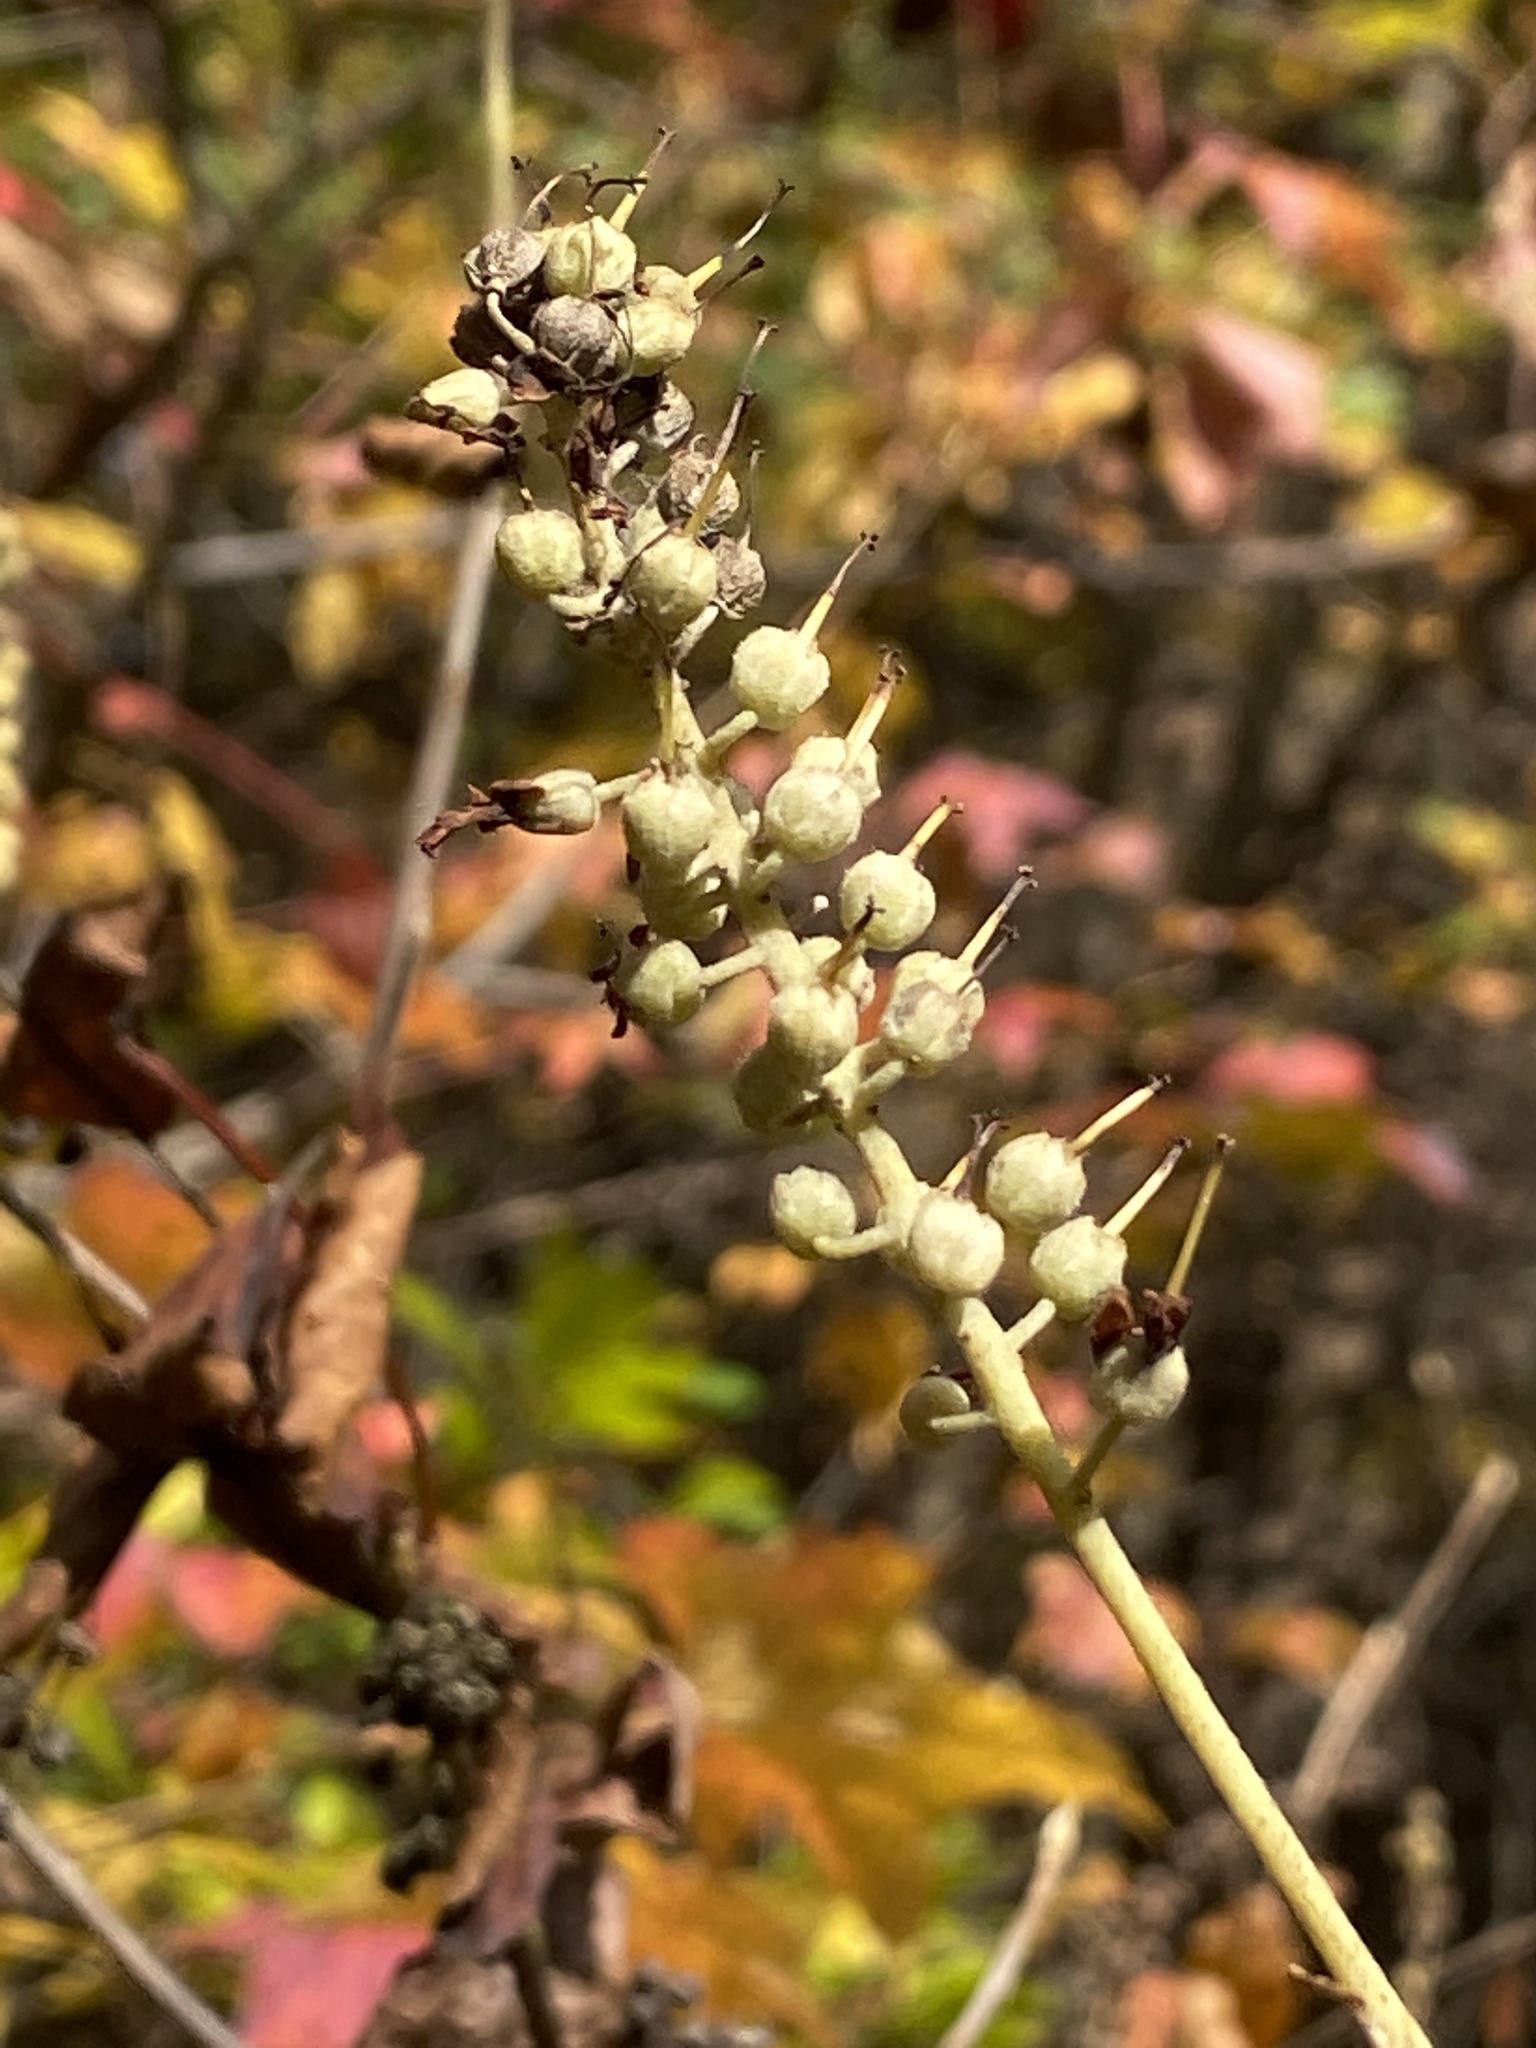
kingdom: Plantae
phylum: Tracheophyta
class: Magnoliopsida
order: Ericales
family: Clethraceae
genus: Clethra
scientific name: Clethra alnifolia
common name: Sweet pepperbush
